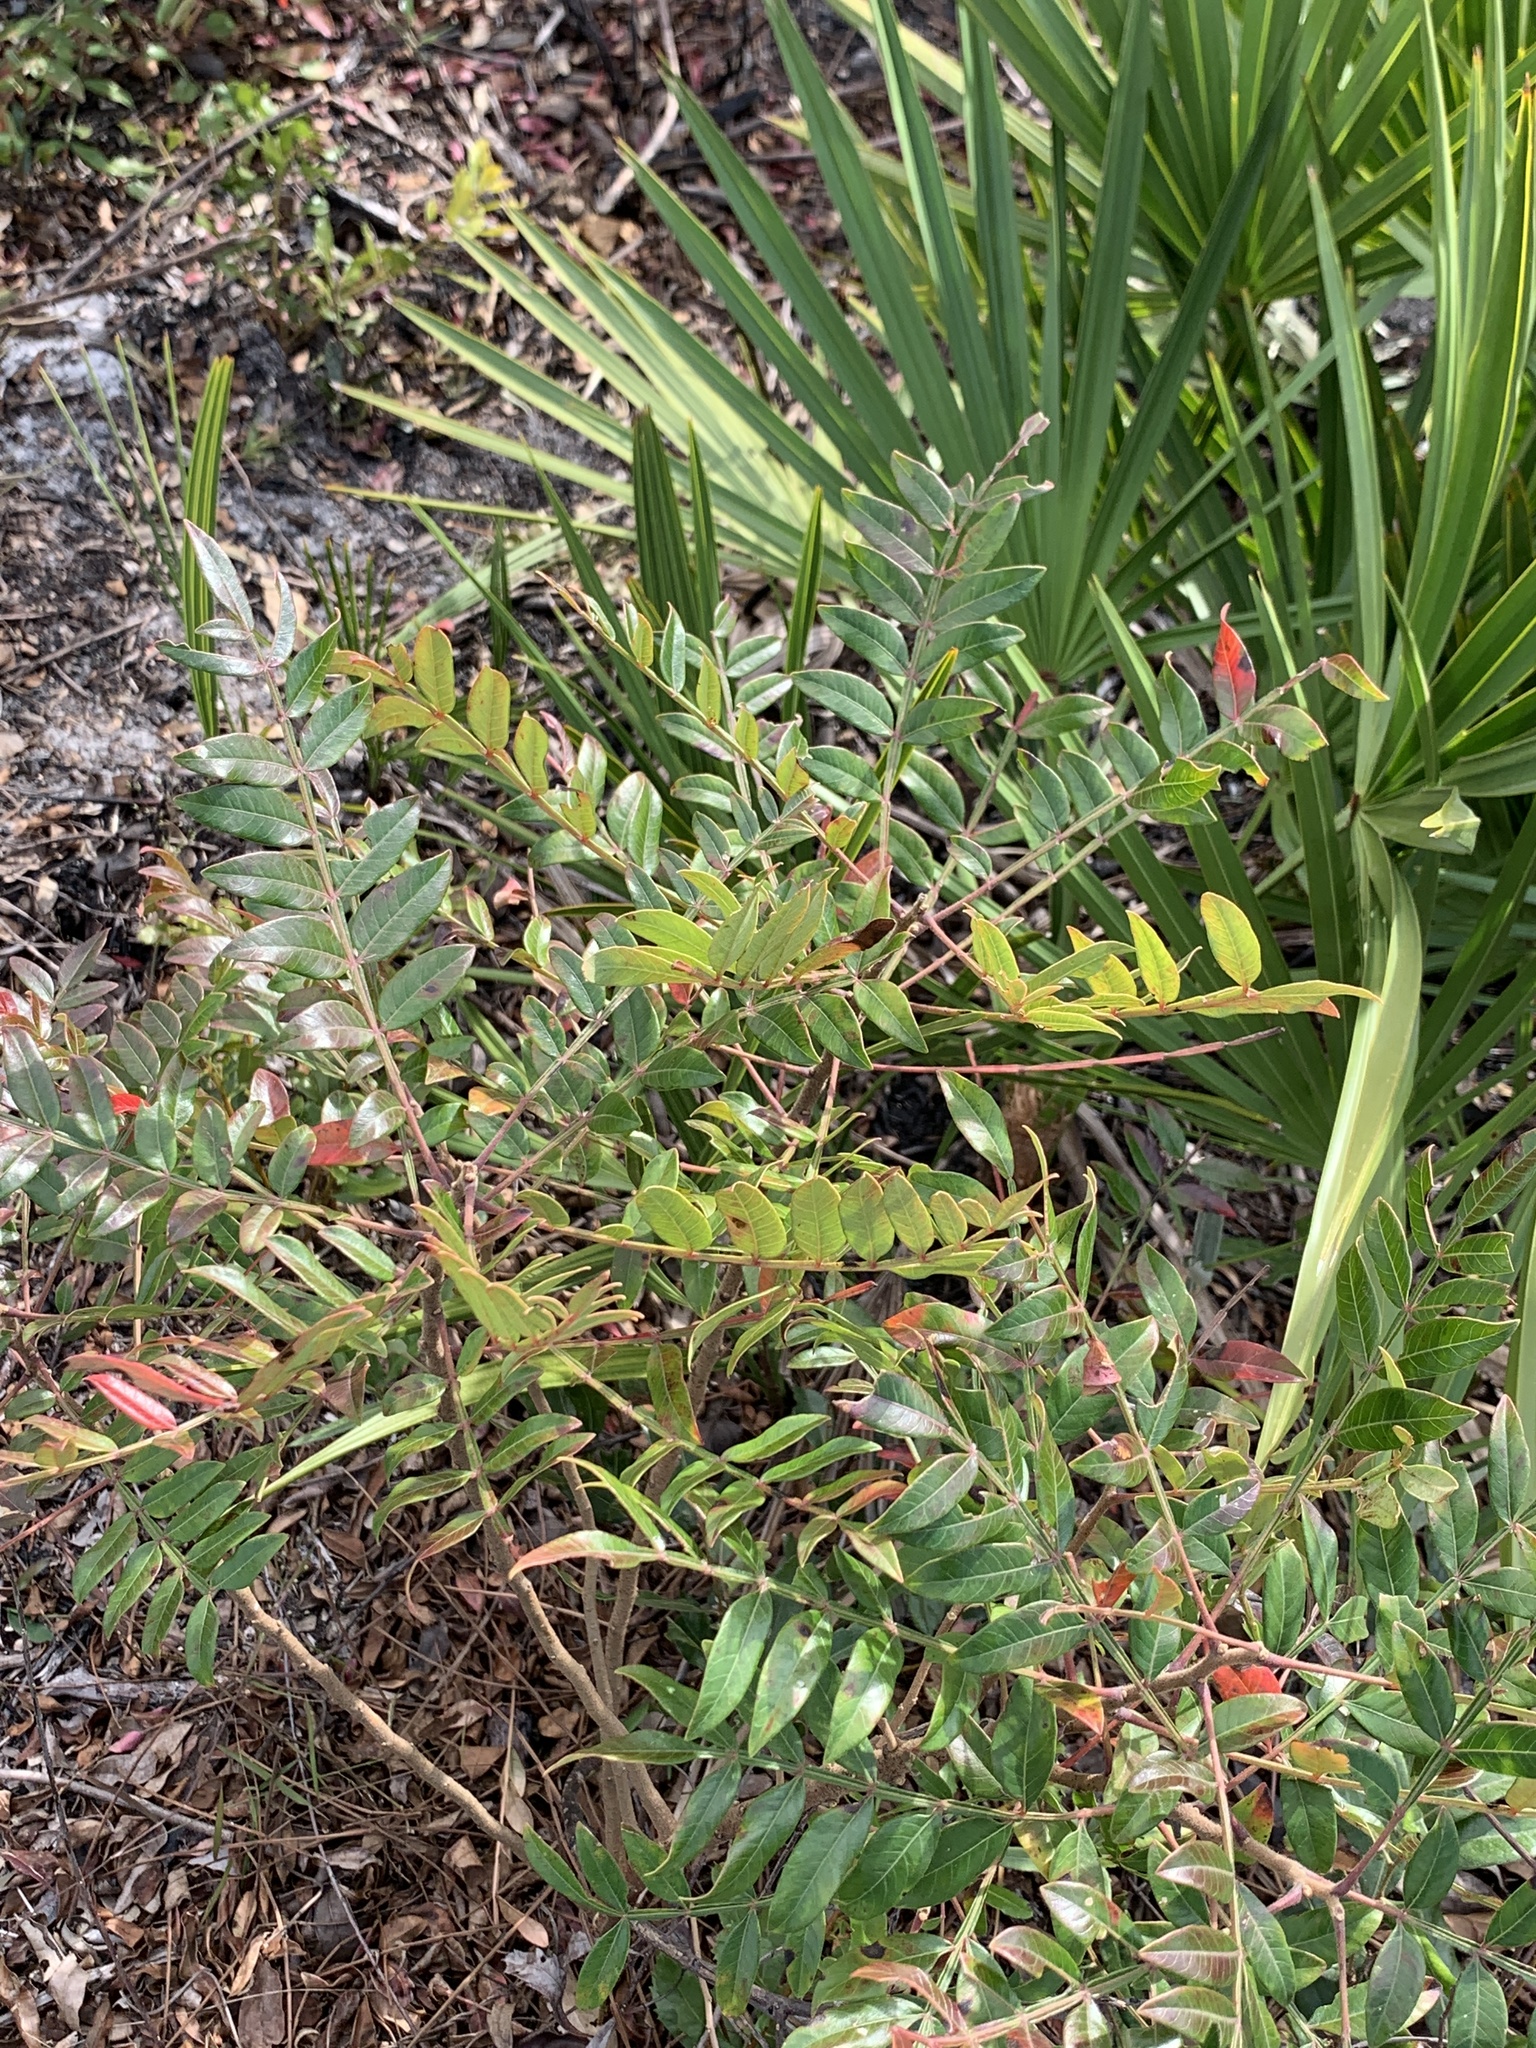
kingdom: Plantae
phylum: Tracheophyta
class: Magnoliopsida
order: Sapindales
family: Anacardiaceae
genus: Rhus
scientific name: Rhus copallina
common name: Shining sumac
